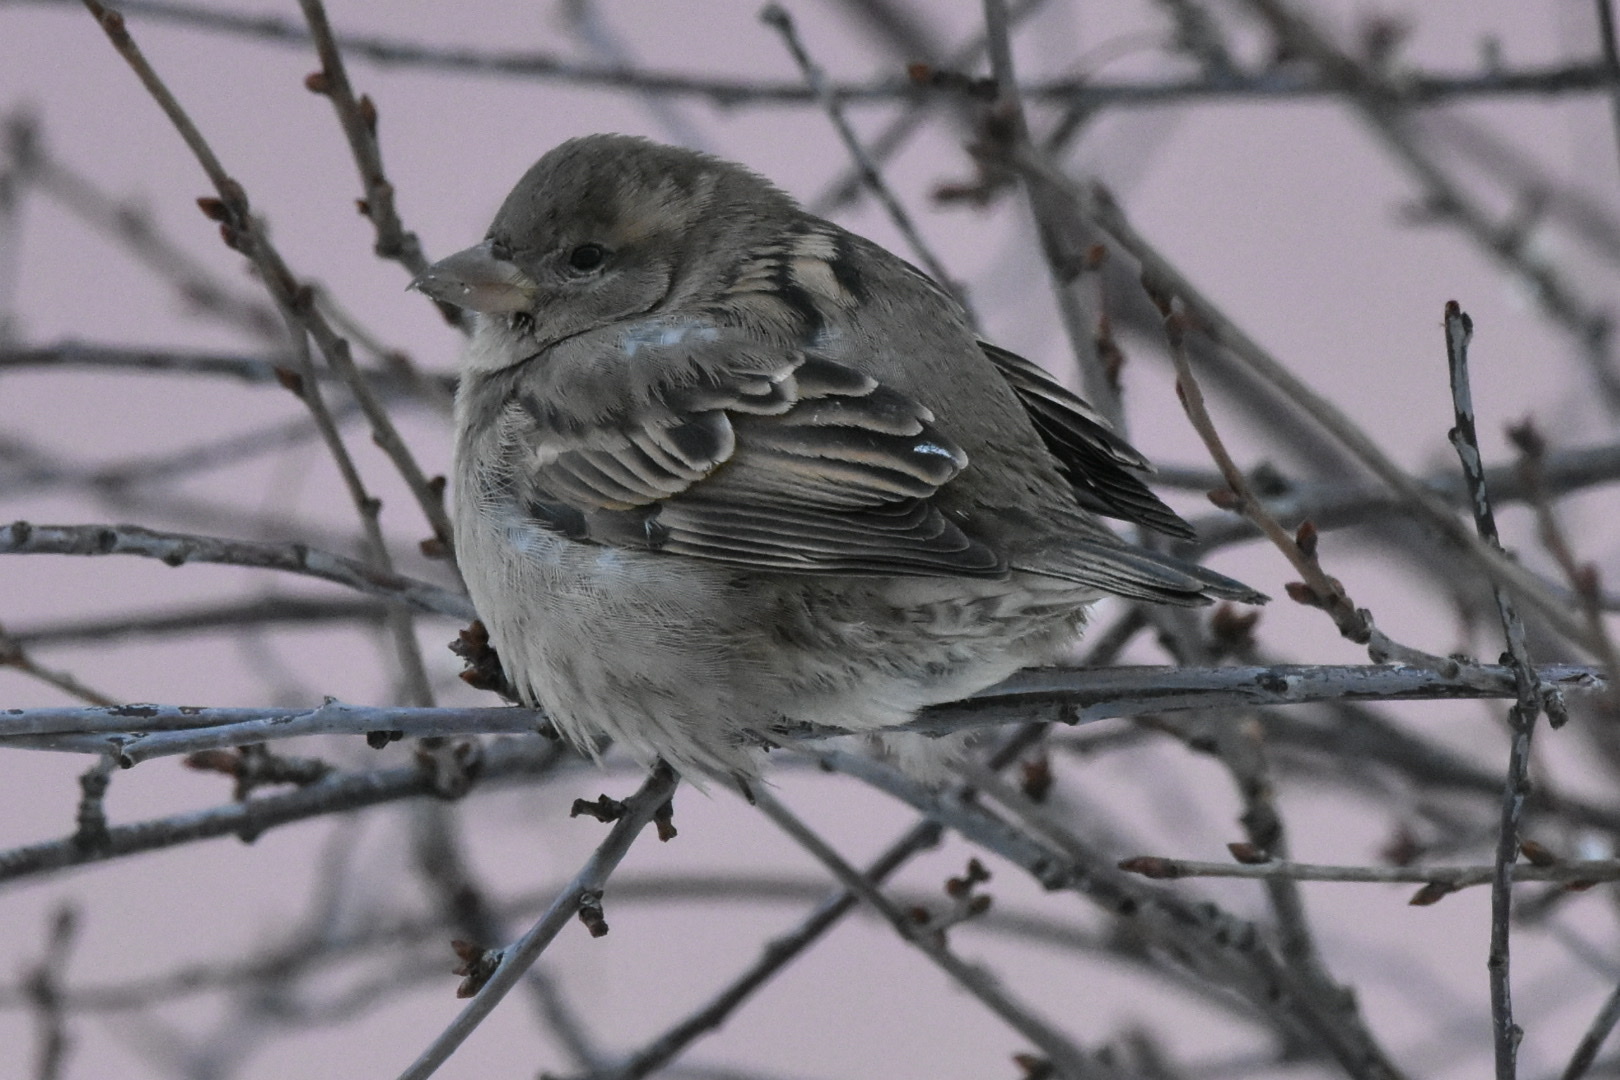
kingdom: Animalia
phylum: Chordata
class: Aves
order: Passeriformes
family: Passeridae
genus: Passer
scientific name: Passer domesticus
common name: House sparrow
